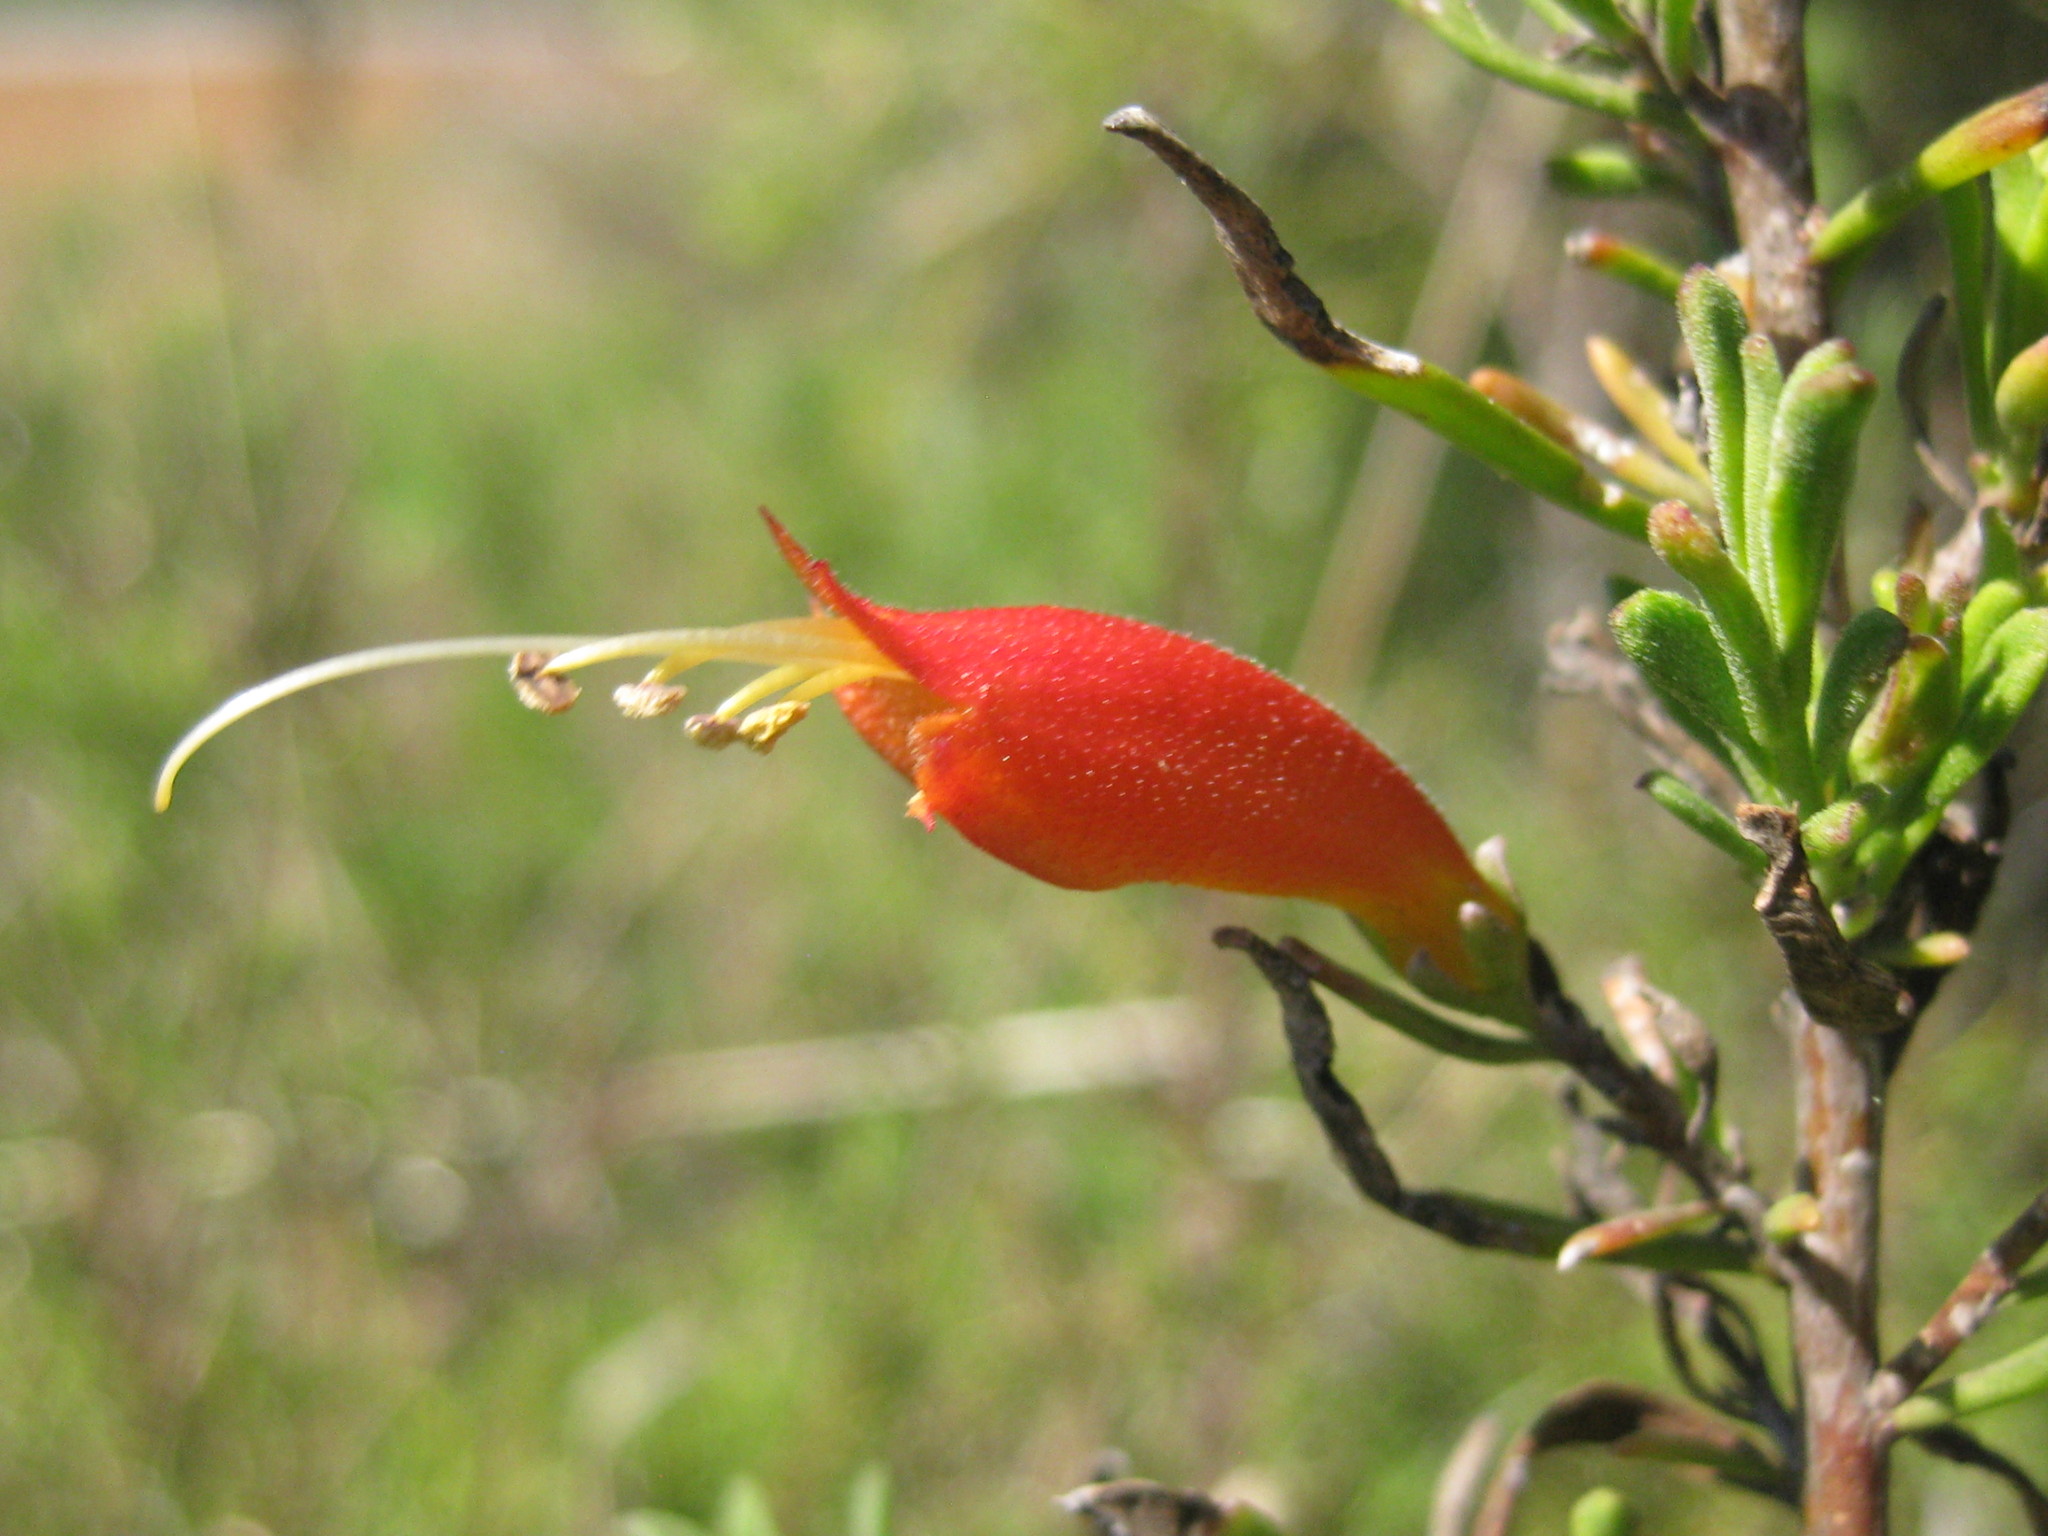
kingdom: Plantae
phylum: Tracheophyta
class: Magnoliopsida
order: Lamiales
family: Scrophulariaceae
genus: Eremophila
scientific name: Eremophila glabra
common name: Black-fuchsia
